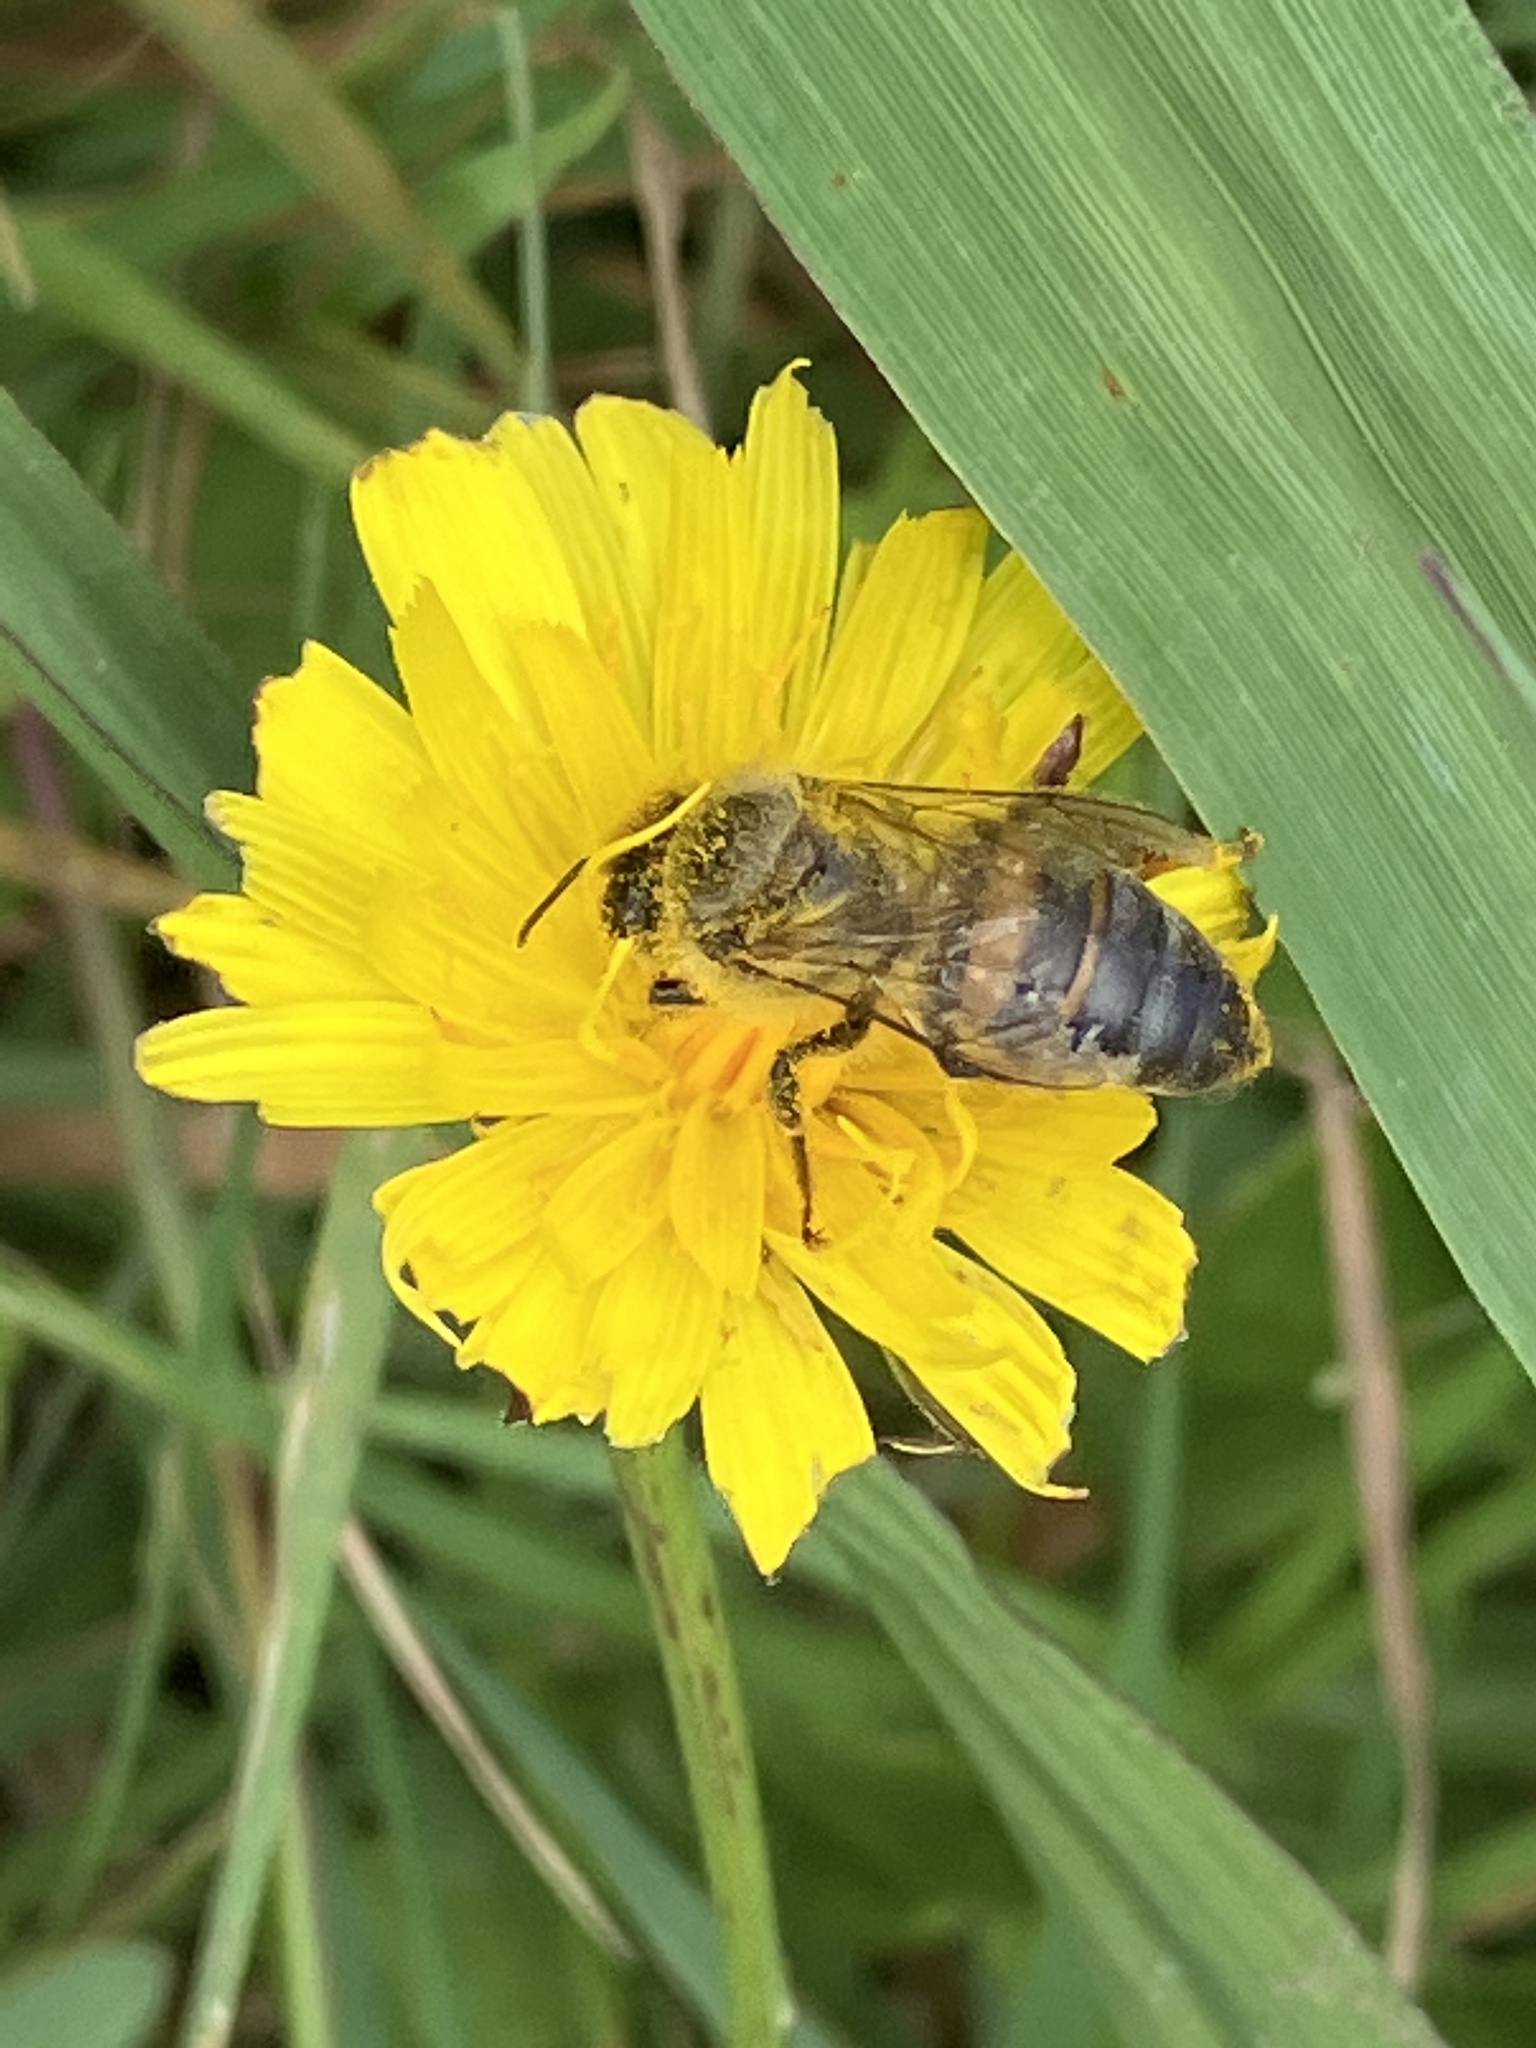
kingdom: Animalia
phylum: Arthropoda
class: Insecta
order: Hymenoptera
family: Apidae
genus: Apis
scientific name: Apis mellifera
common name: Honey bee
